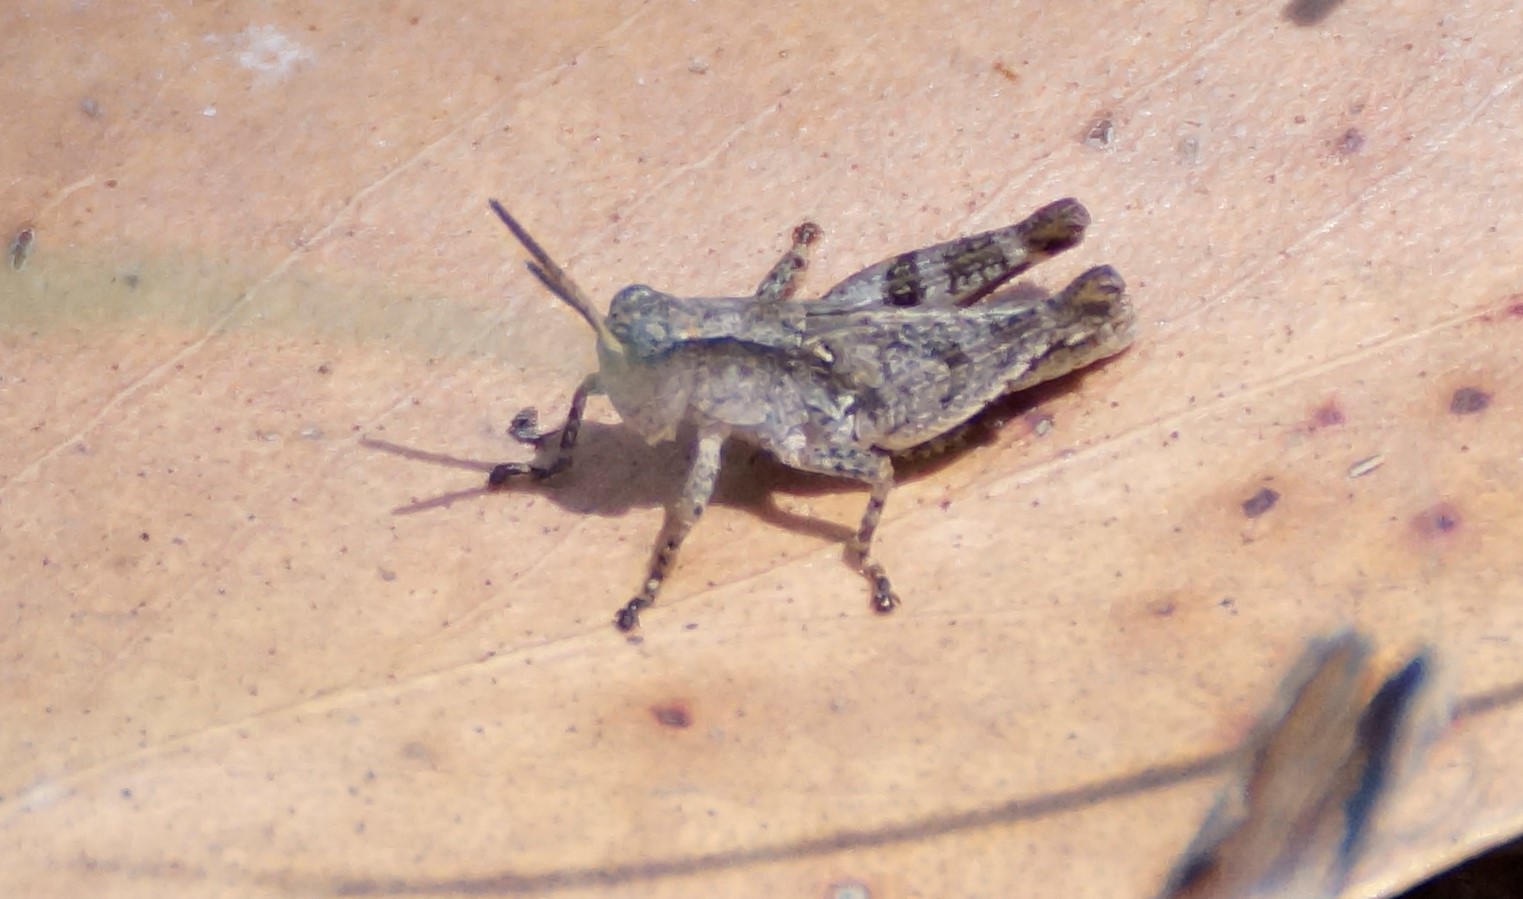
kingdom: Animalia
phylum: Arthropoda
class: Insecta
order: Orthoptera
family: Acrididae
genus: Phaulacridium
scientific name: Phaulacridium vittatum
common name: Wingless grasshopper
